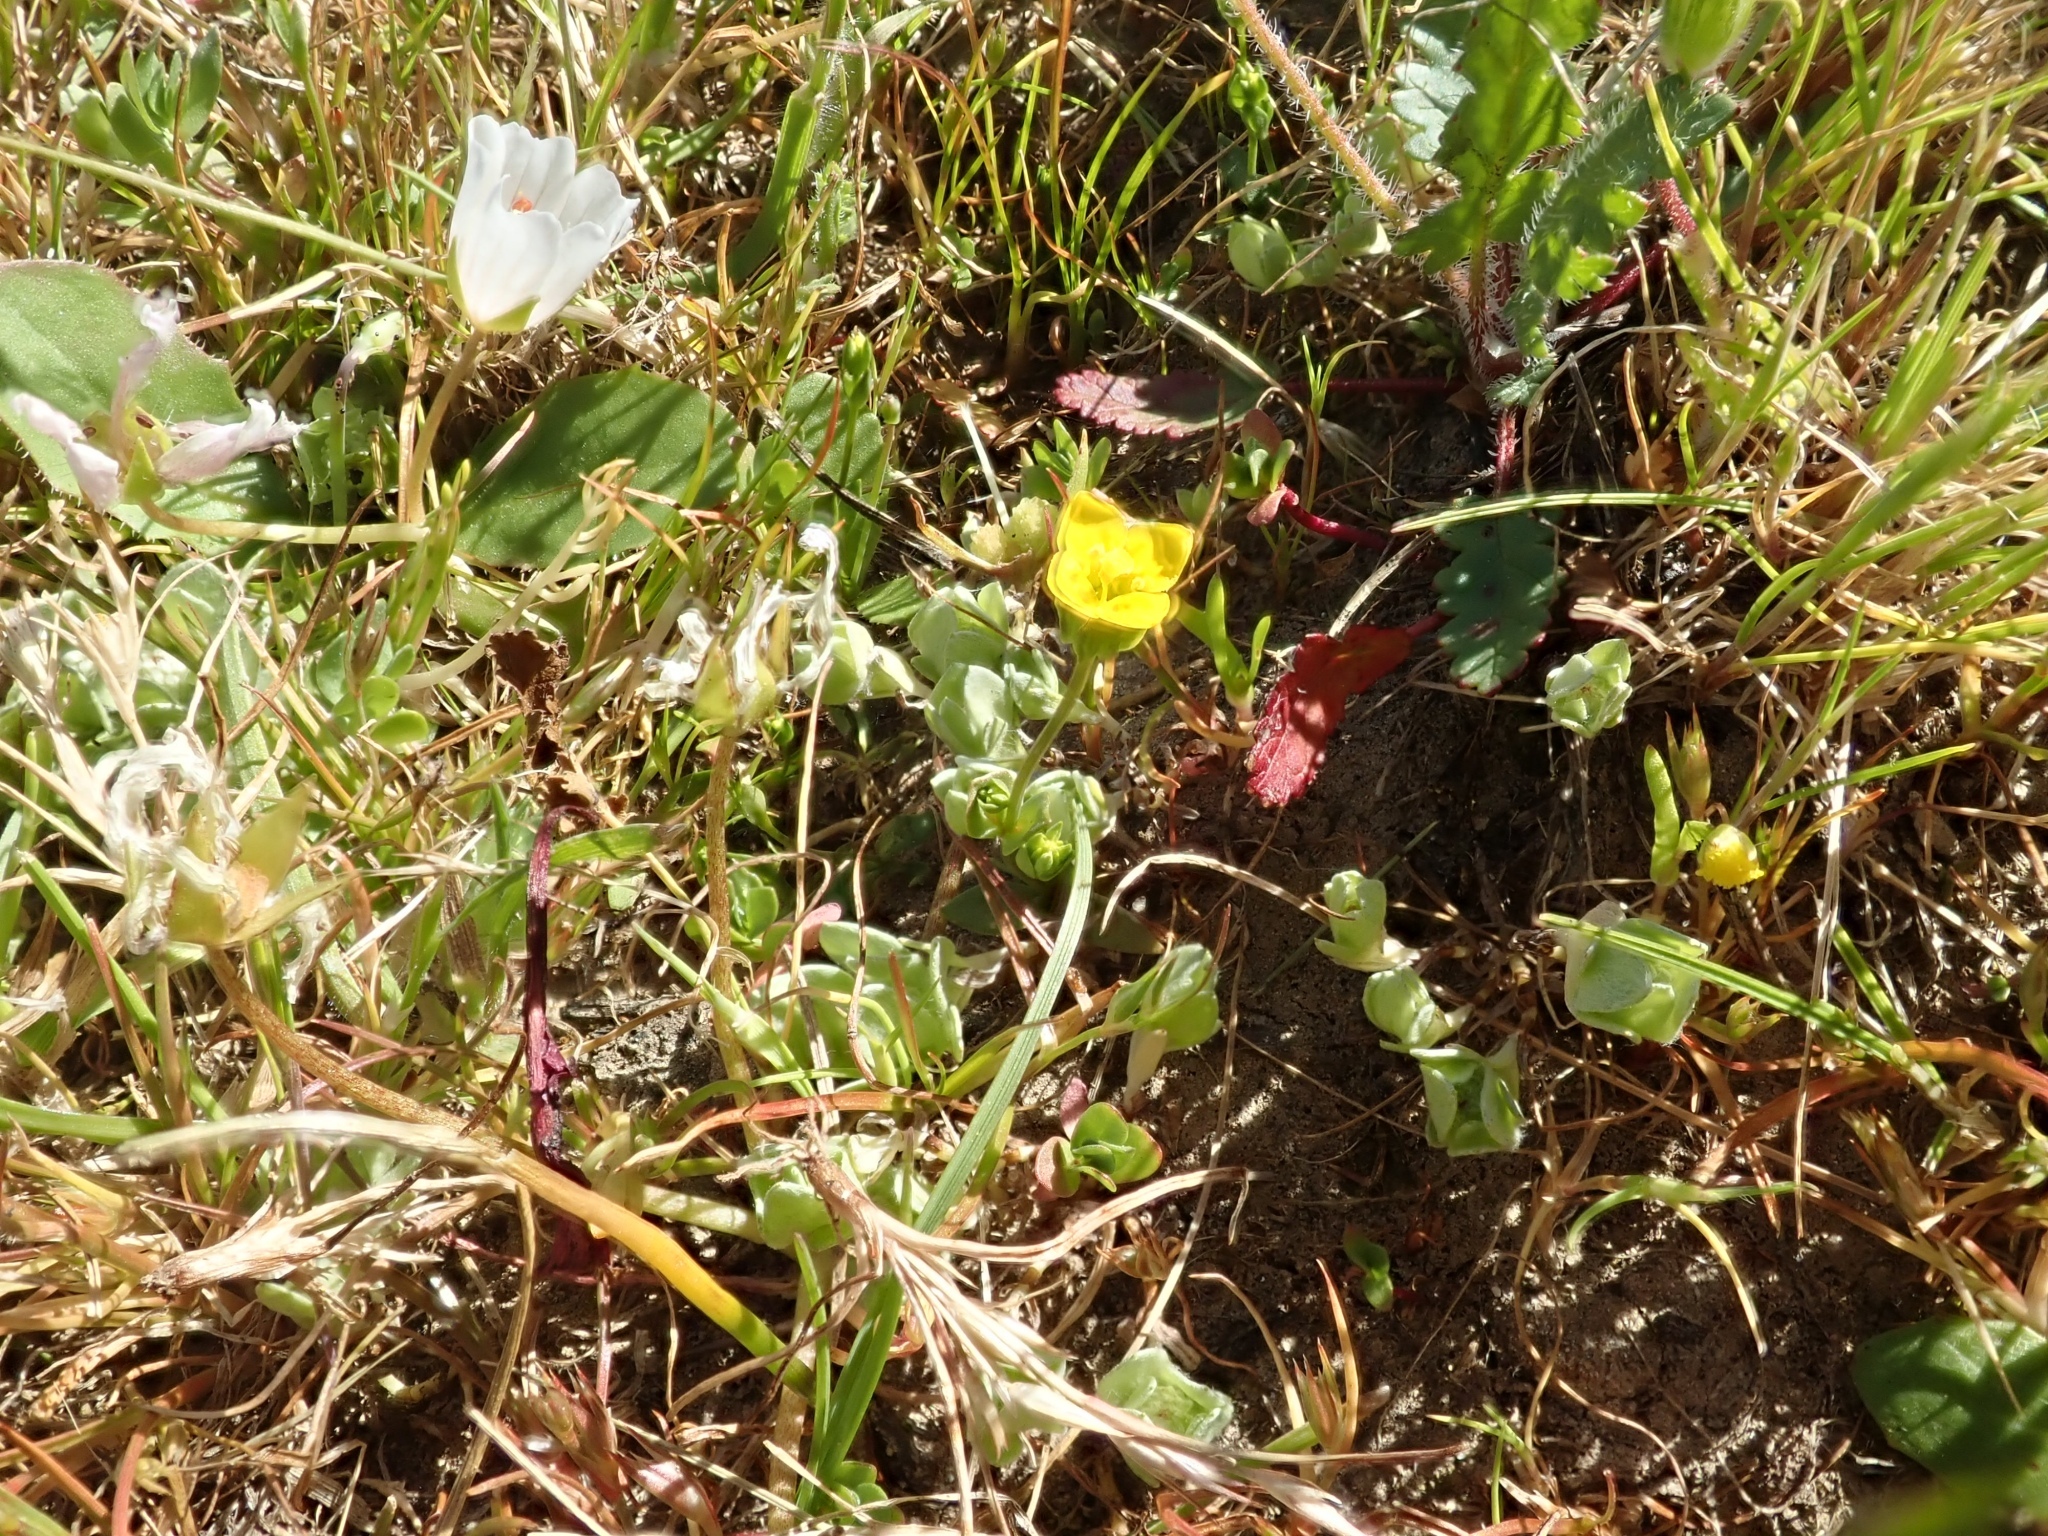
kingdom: Plantae
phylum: Tracheophyta
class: Magnoliopsida
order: Gentianales
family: Gentianaceae
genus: Microcala
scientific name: Microcala quadrangularis
